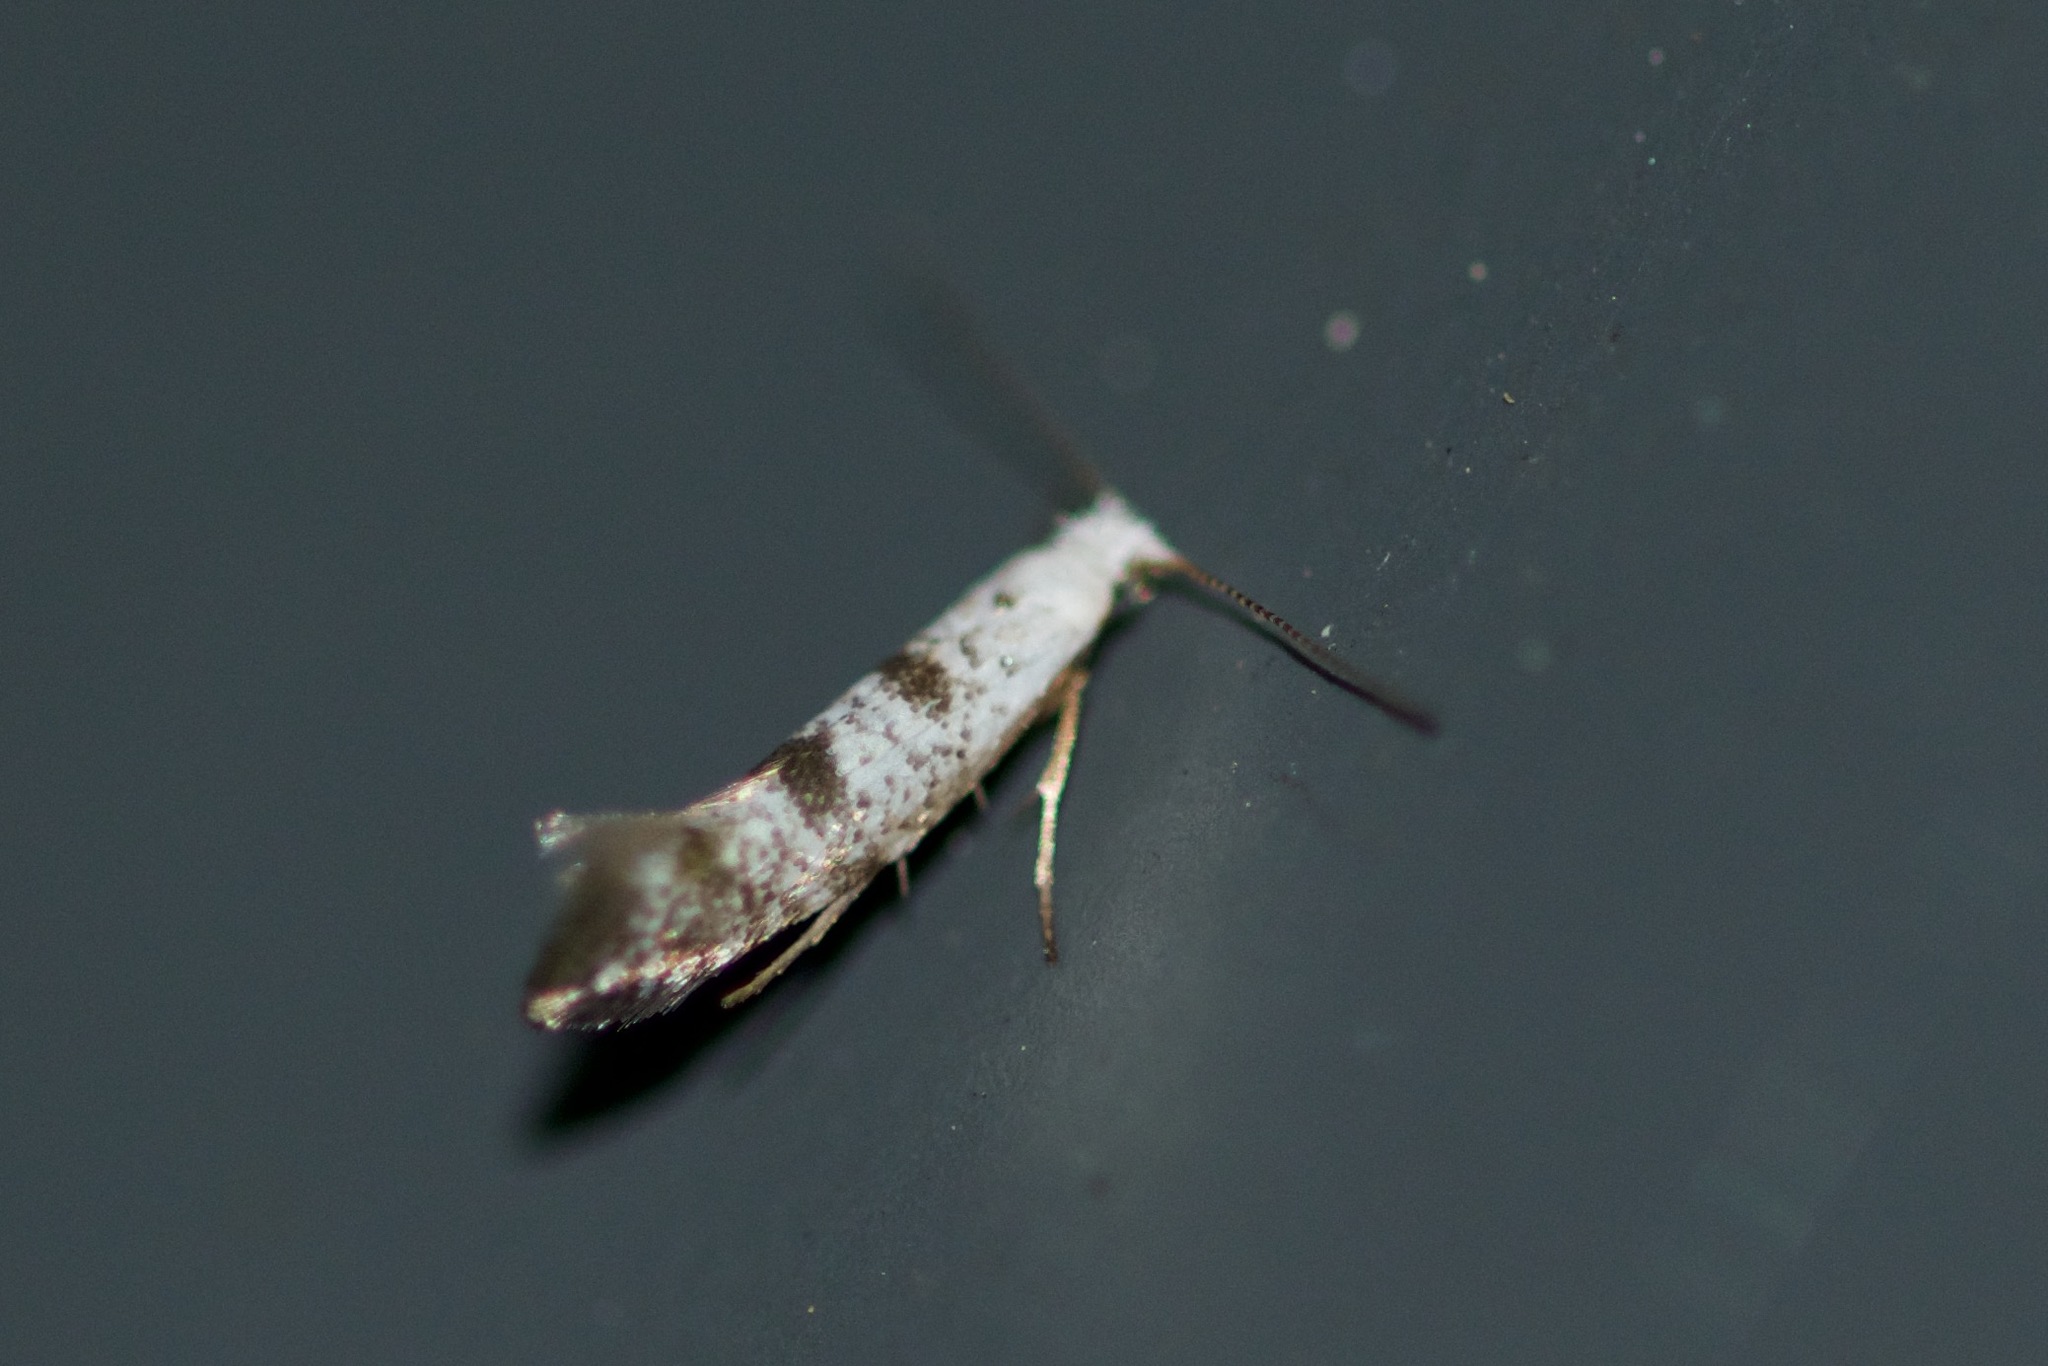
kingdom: Animalia
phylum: Arthropoda
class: Insecta
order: Lepidoptera
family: Argyresthiidae
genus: Argyresthia
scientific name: Argyresthia thuiella
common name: Arborvitae leafminer
